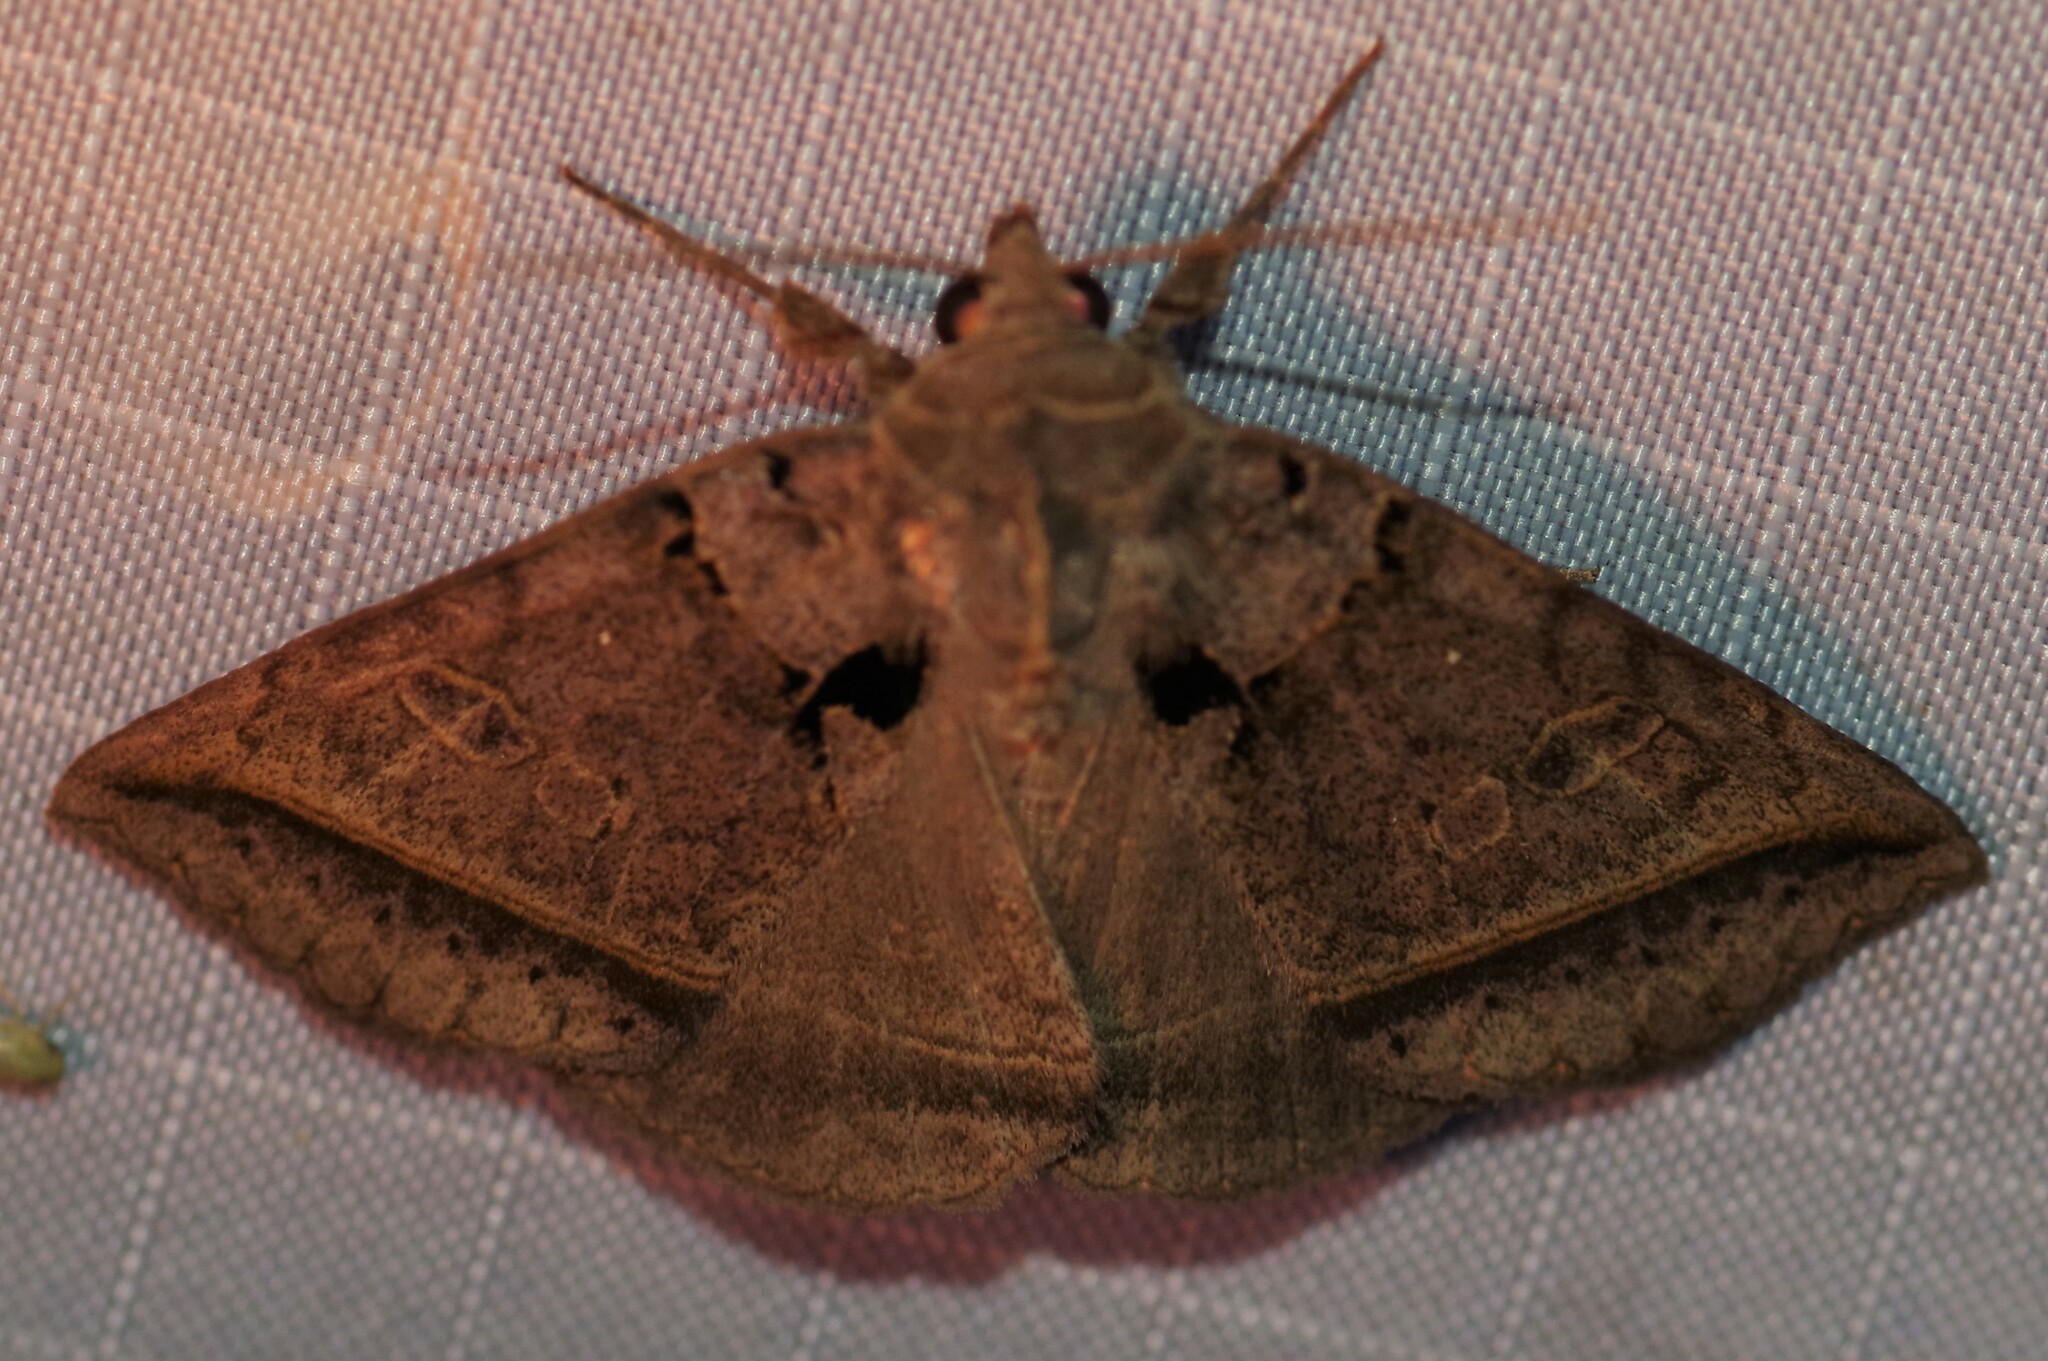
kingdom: Animalia
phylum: Arthropoda
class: Insecta
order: Lepidoptera
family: Erebidae
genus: Celiptera
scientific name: Celiptera frustulum
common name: Black bit moth
